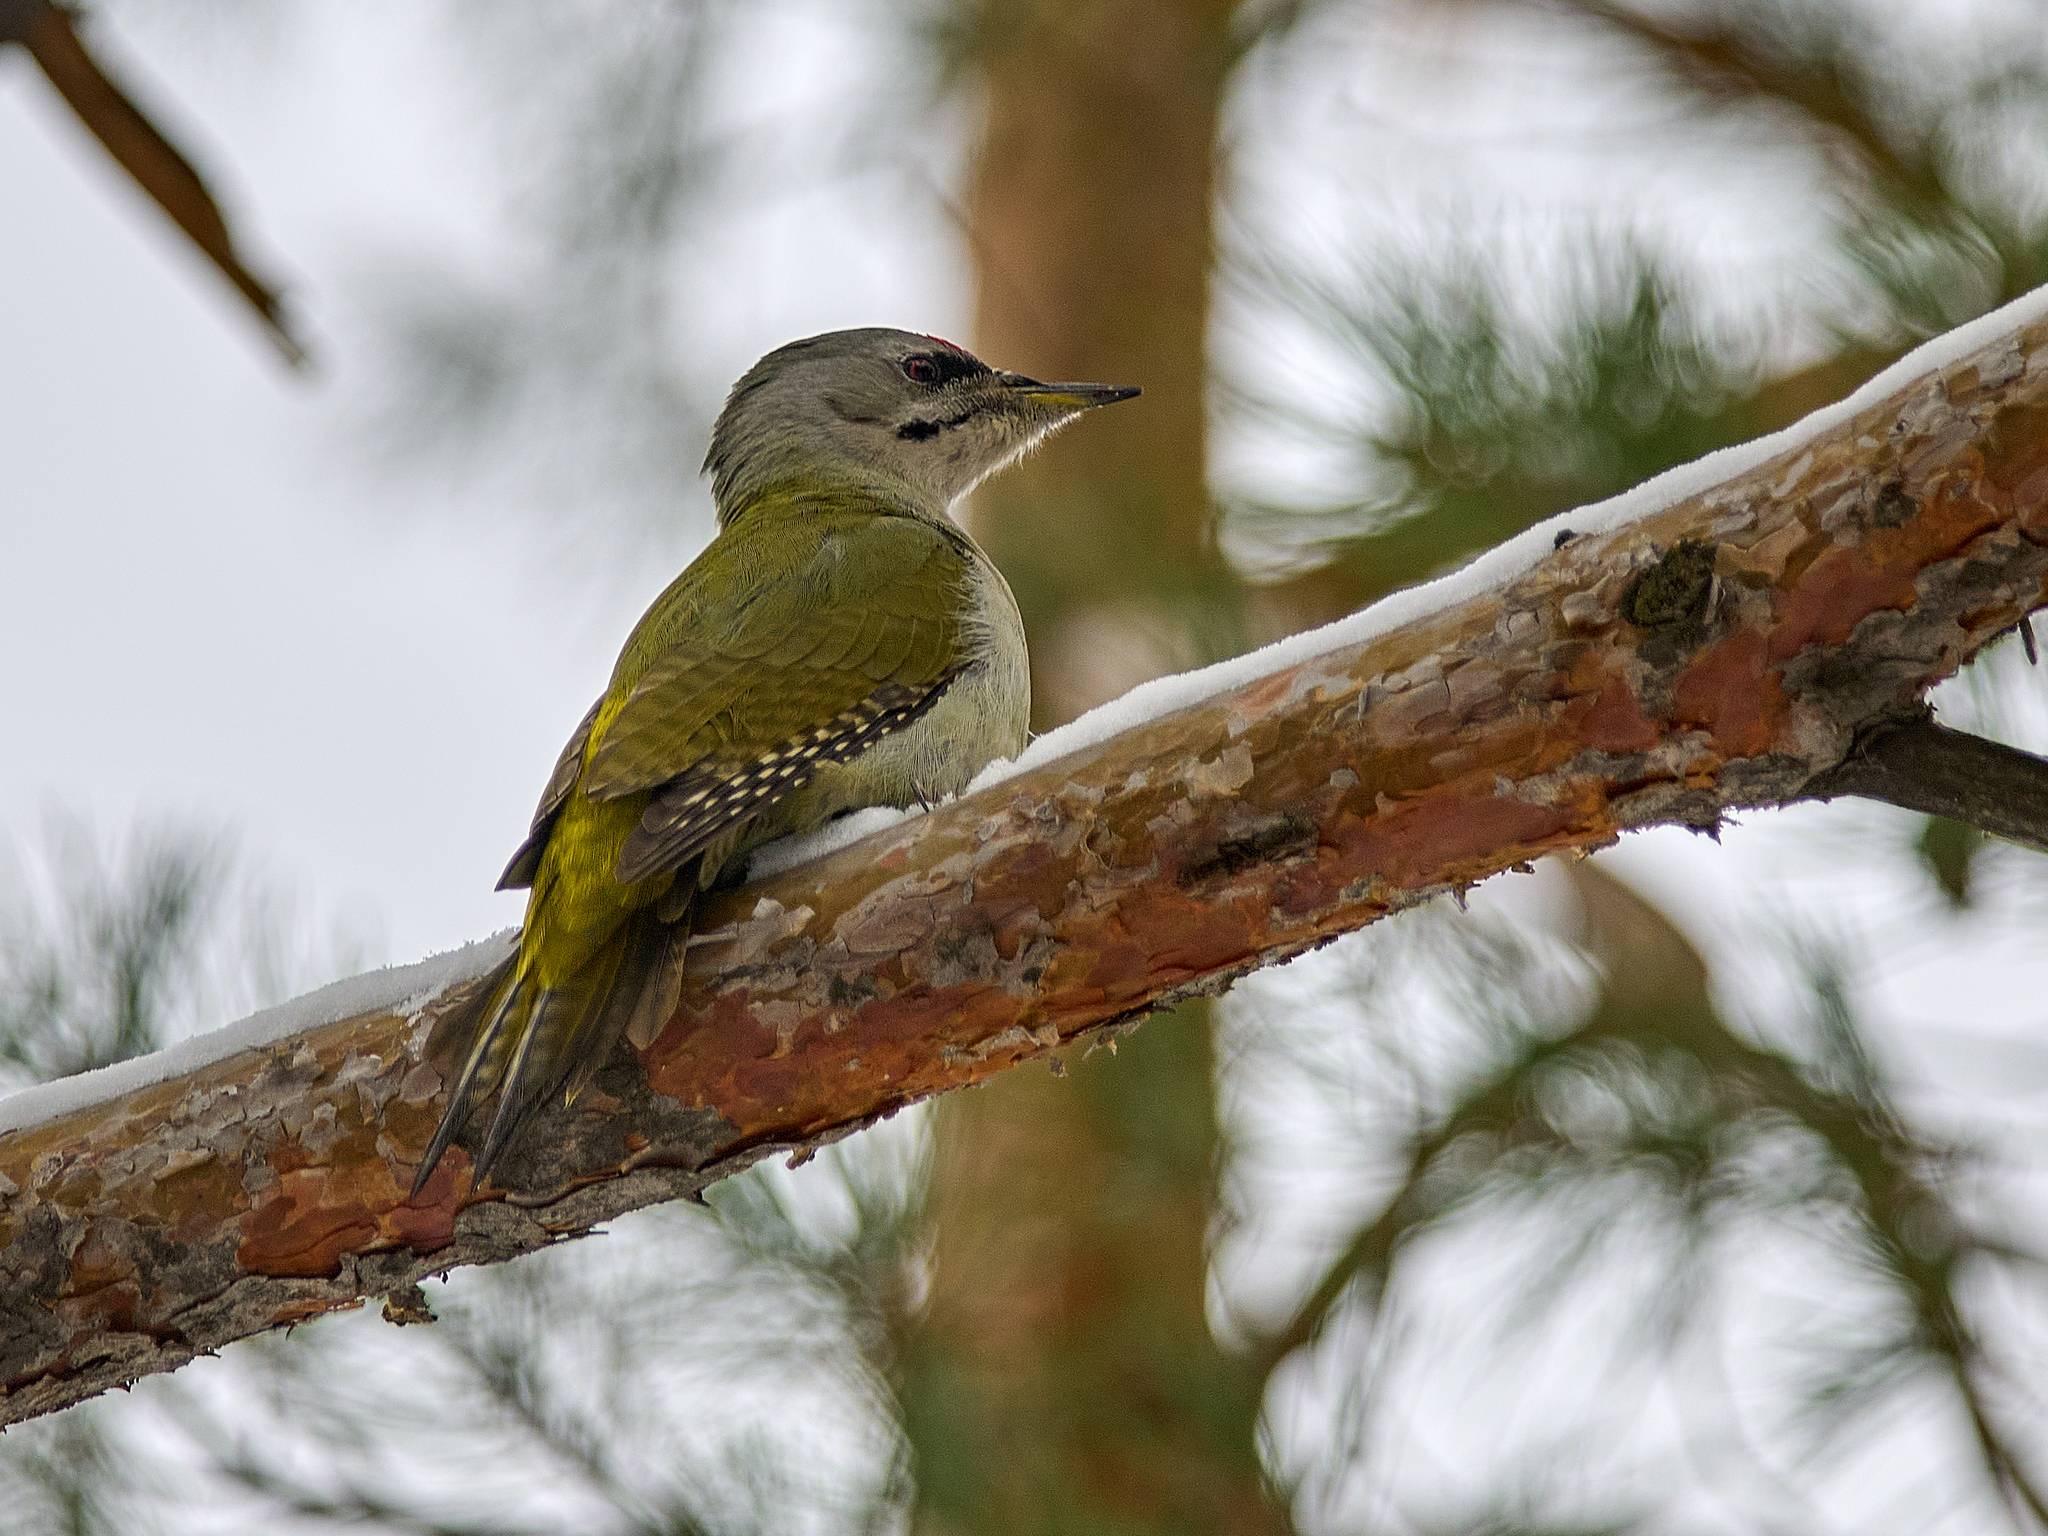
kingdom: Animalia
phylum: Chordata
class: Aves
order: Piciformes
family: Picidae
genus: Picus
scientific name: Picus canus
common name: Grey-headed woodpecker
